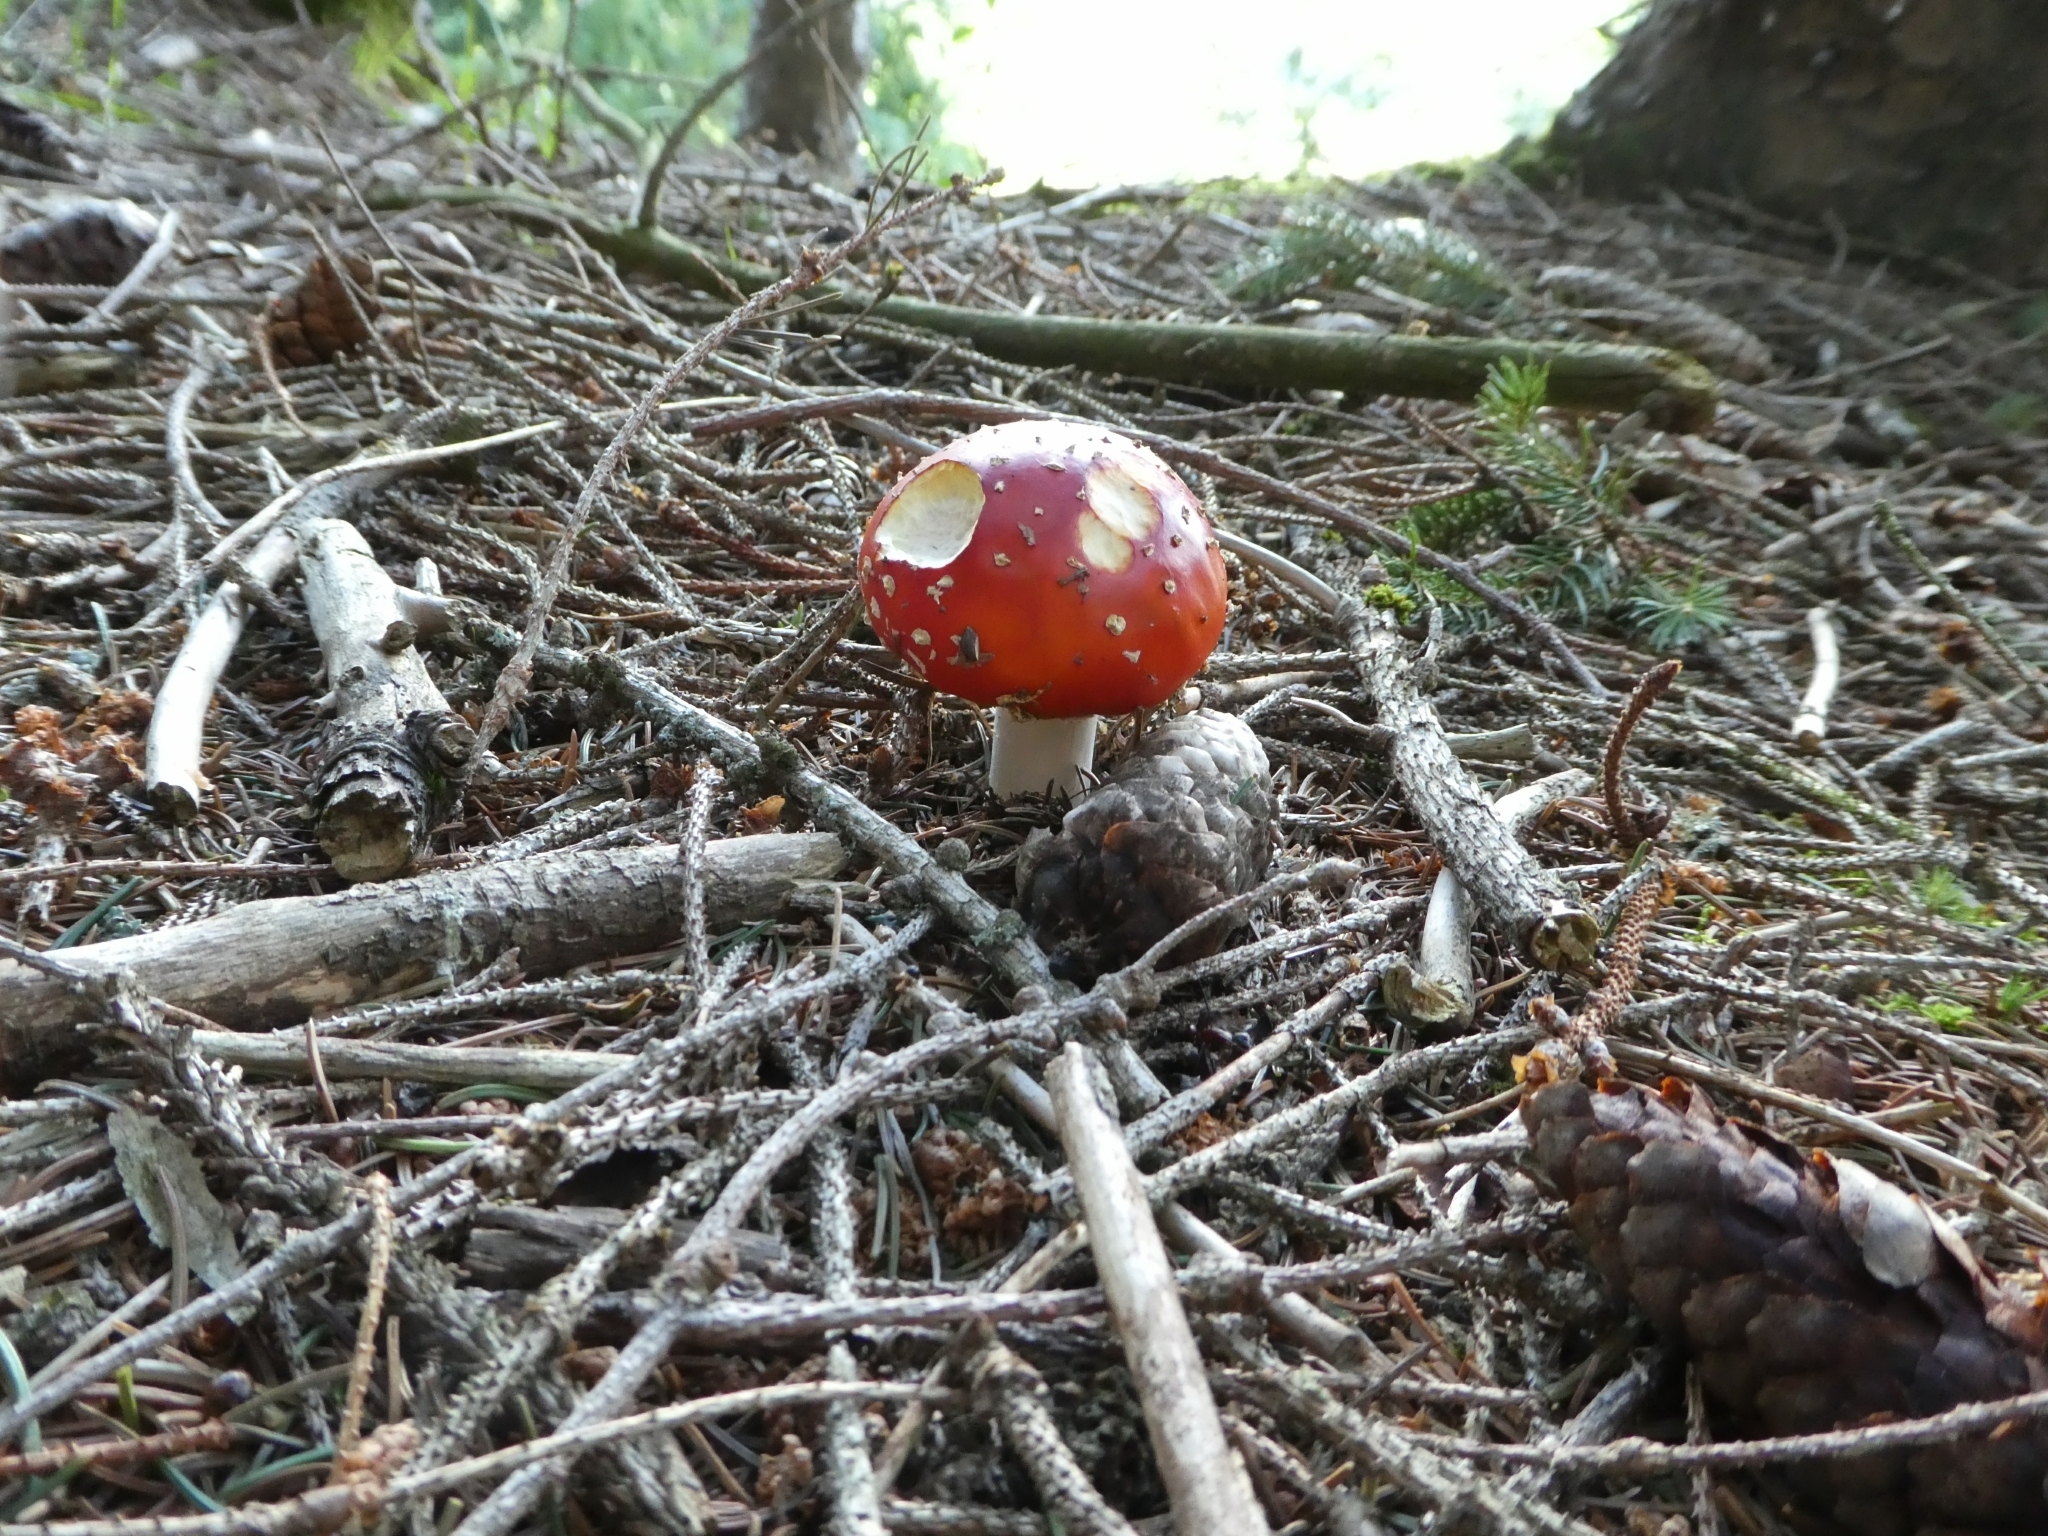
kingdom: Fungi
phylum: Basidiomycota
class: Agaricomycetes
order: Agaricales
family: Amanitaceae
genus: Amanita
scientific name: Amanita muscaria
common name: Fly agaric
